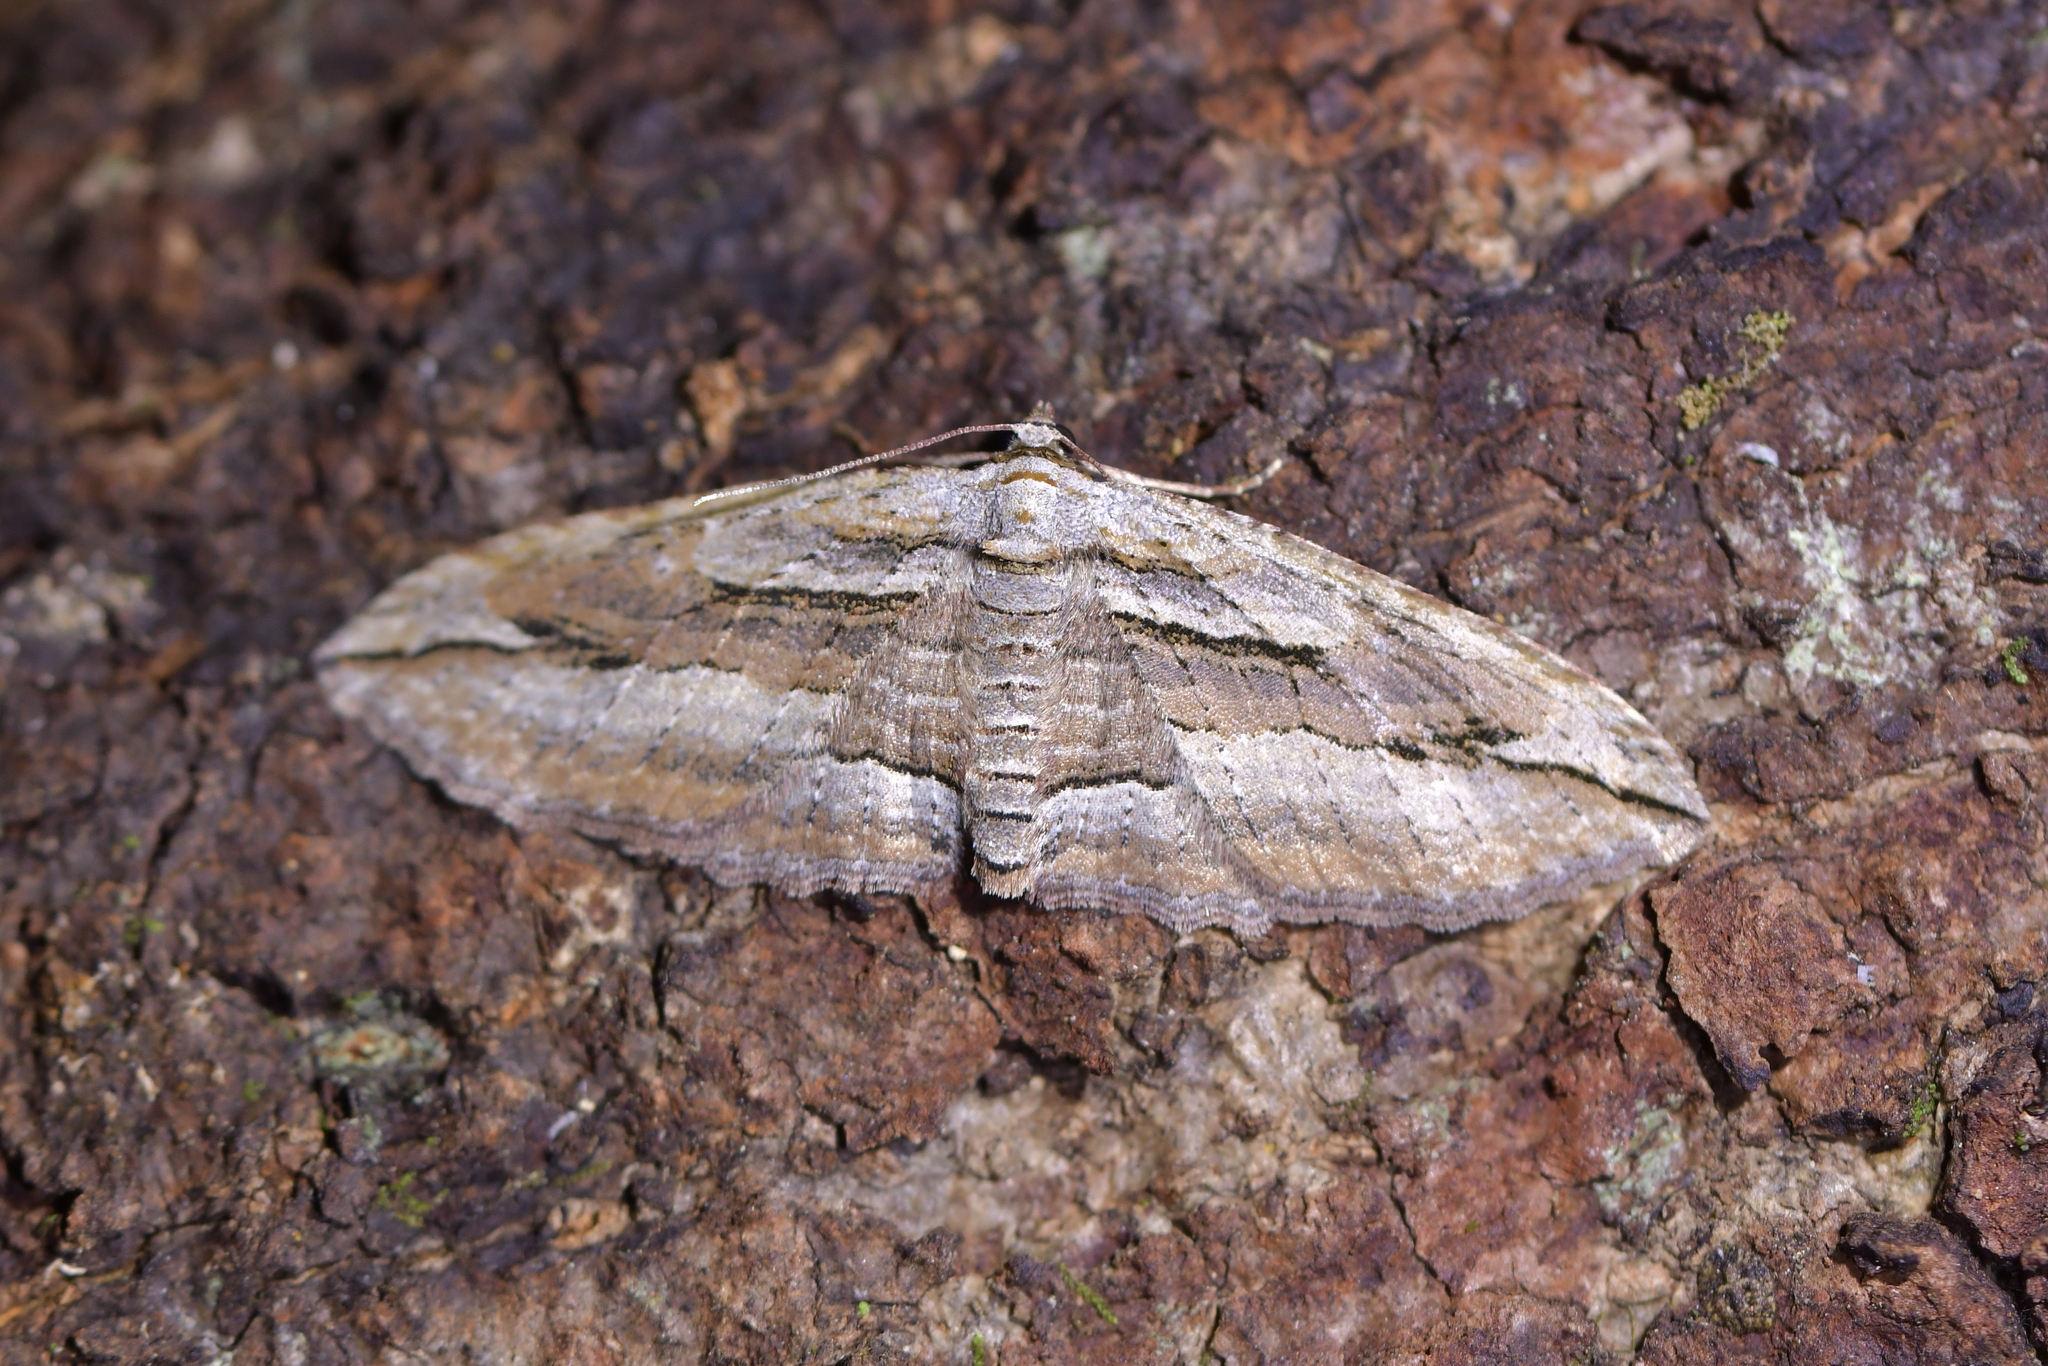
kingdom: Animalia
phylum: Arthropoda
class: Insecta
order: Lepidoptera
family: Geometridae
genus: Austrocidaria
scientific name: Austrocidaria gobiata
